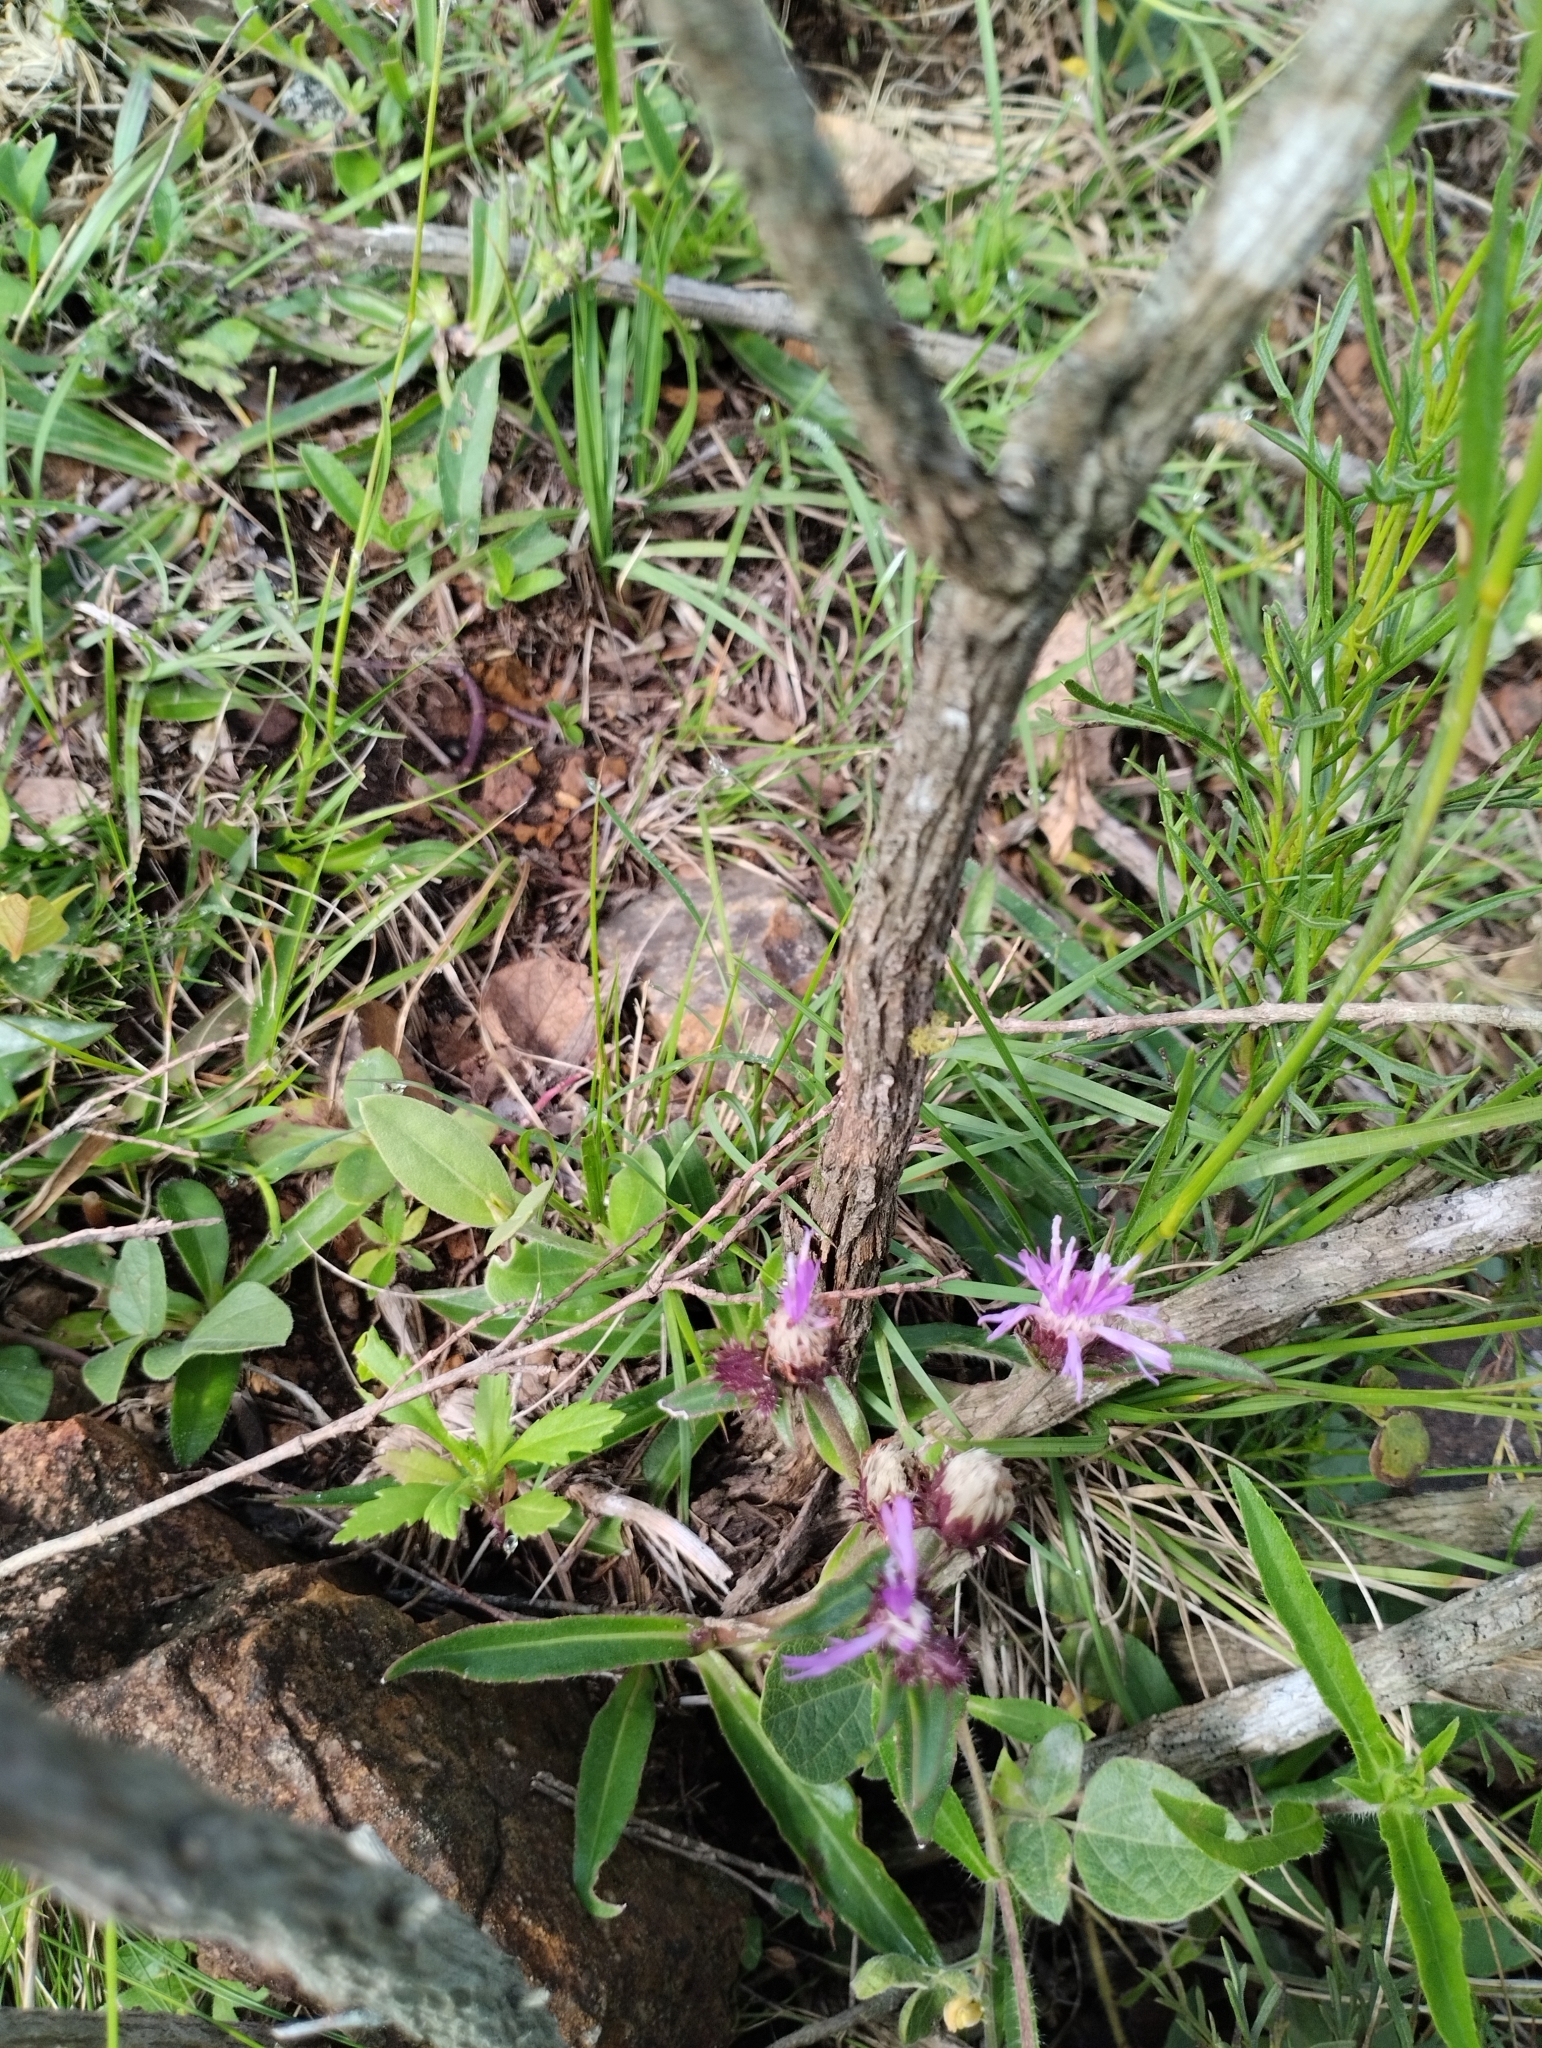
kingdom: Plantae
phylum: Tracheophyta
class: Magnoliopsida
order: Asterales
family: Asteraceae
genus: Chrysolaena
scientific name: Chrysolaena flexuosa
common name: Zig-zag vernonia
